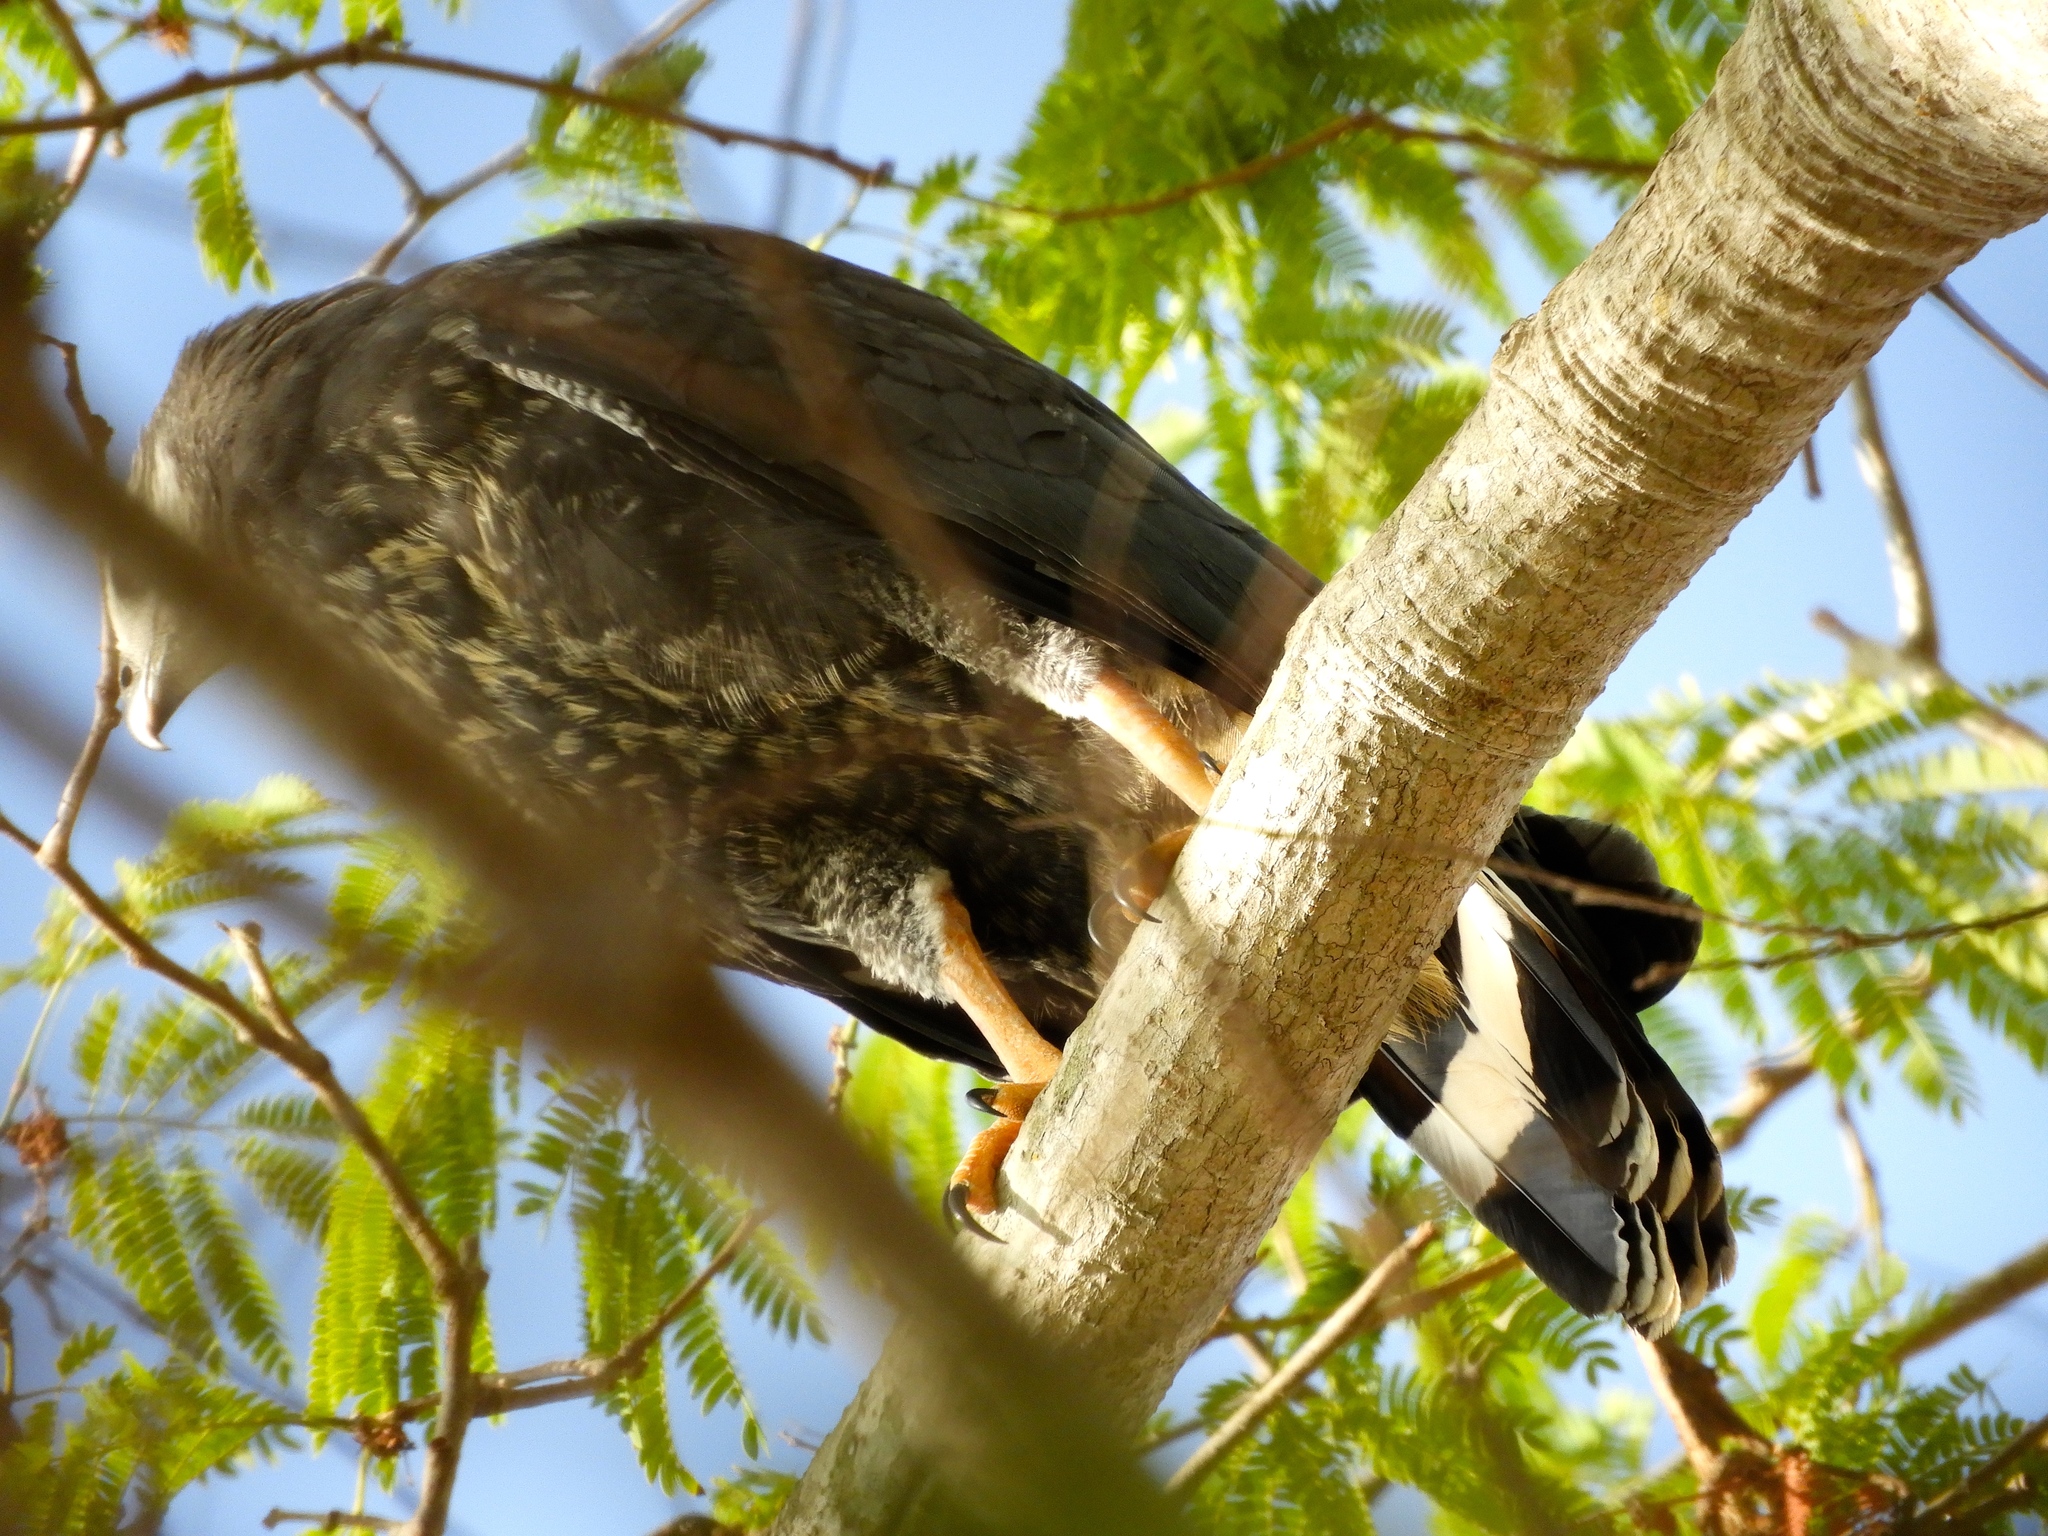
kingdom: Animalia
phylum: Chordata
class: Aves
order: Accipitriformes
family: Accipitridae
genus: Geranospiza
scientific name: Geranospiza caerulescens
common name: Crane hawk
